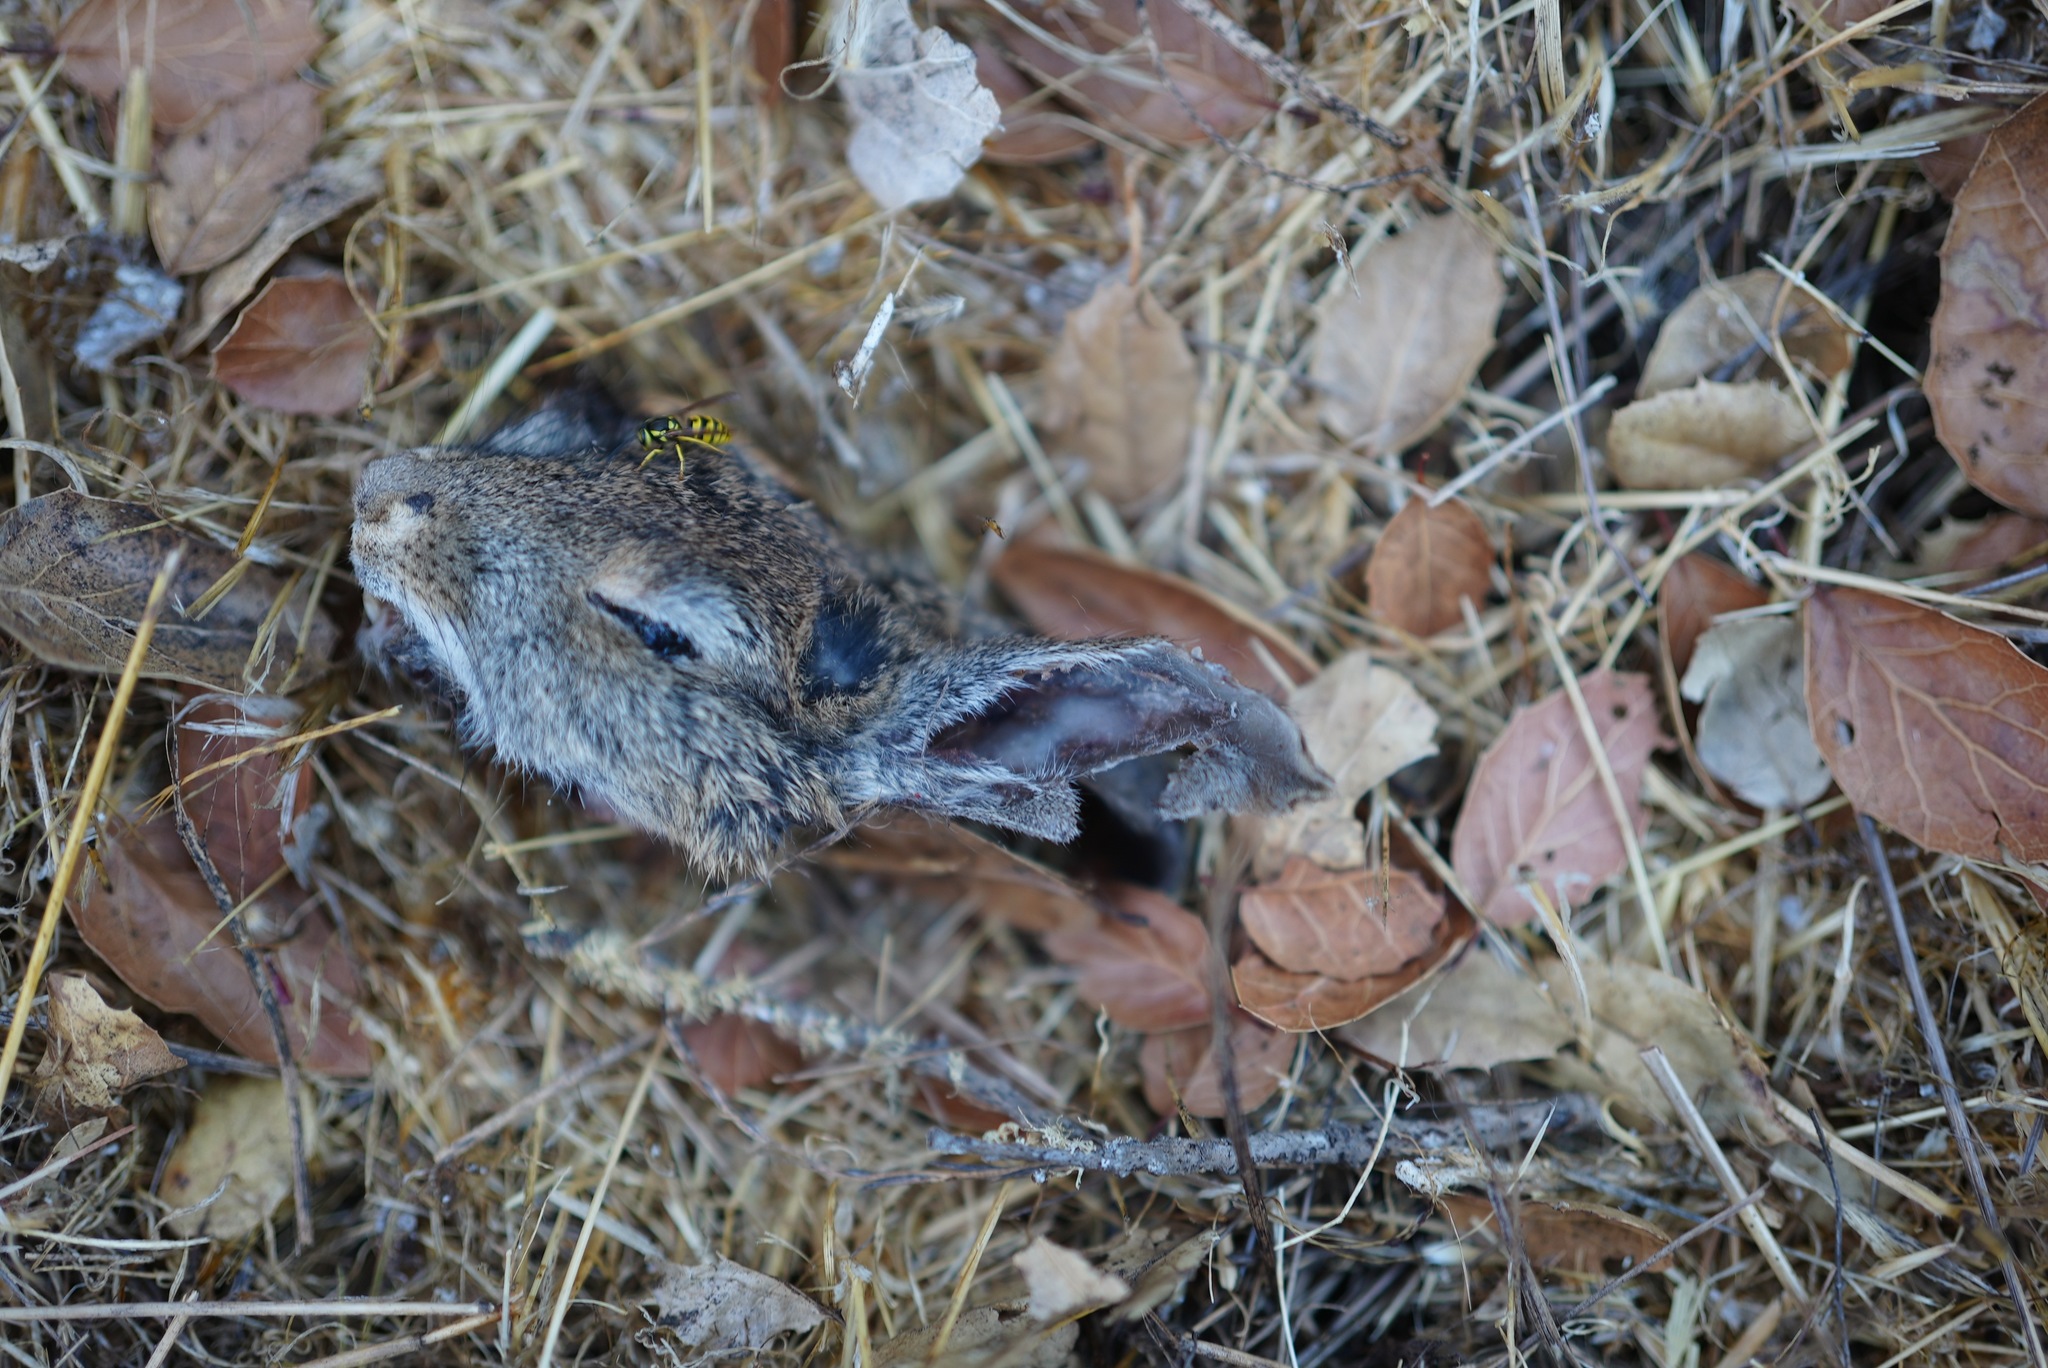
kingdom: Animalia
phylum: Chordata
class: Mammalia
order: Lagomorpha
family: Leporidae
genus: Sylvilagus
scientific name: Sylvilagus bachmani
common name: Brush rabbit
